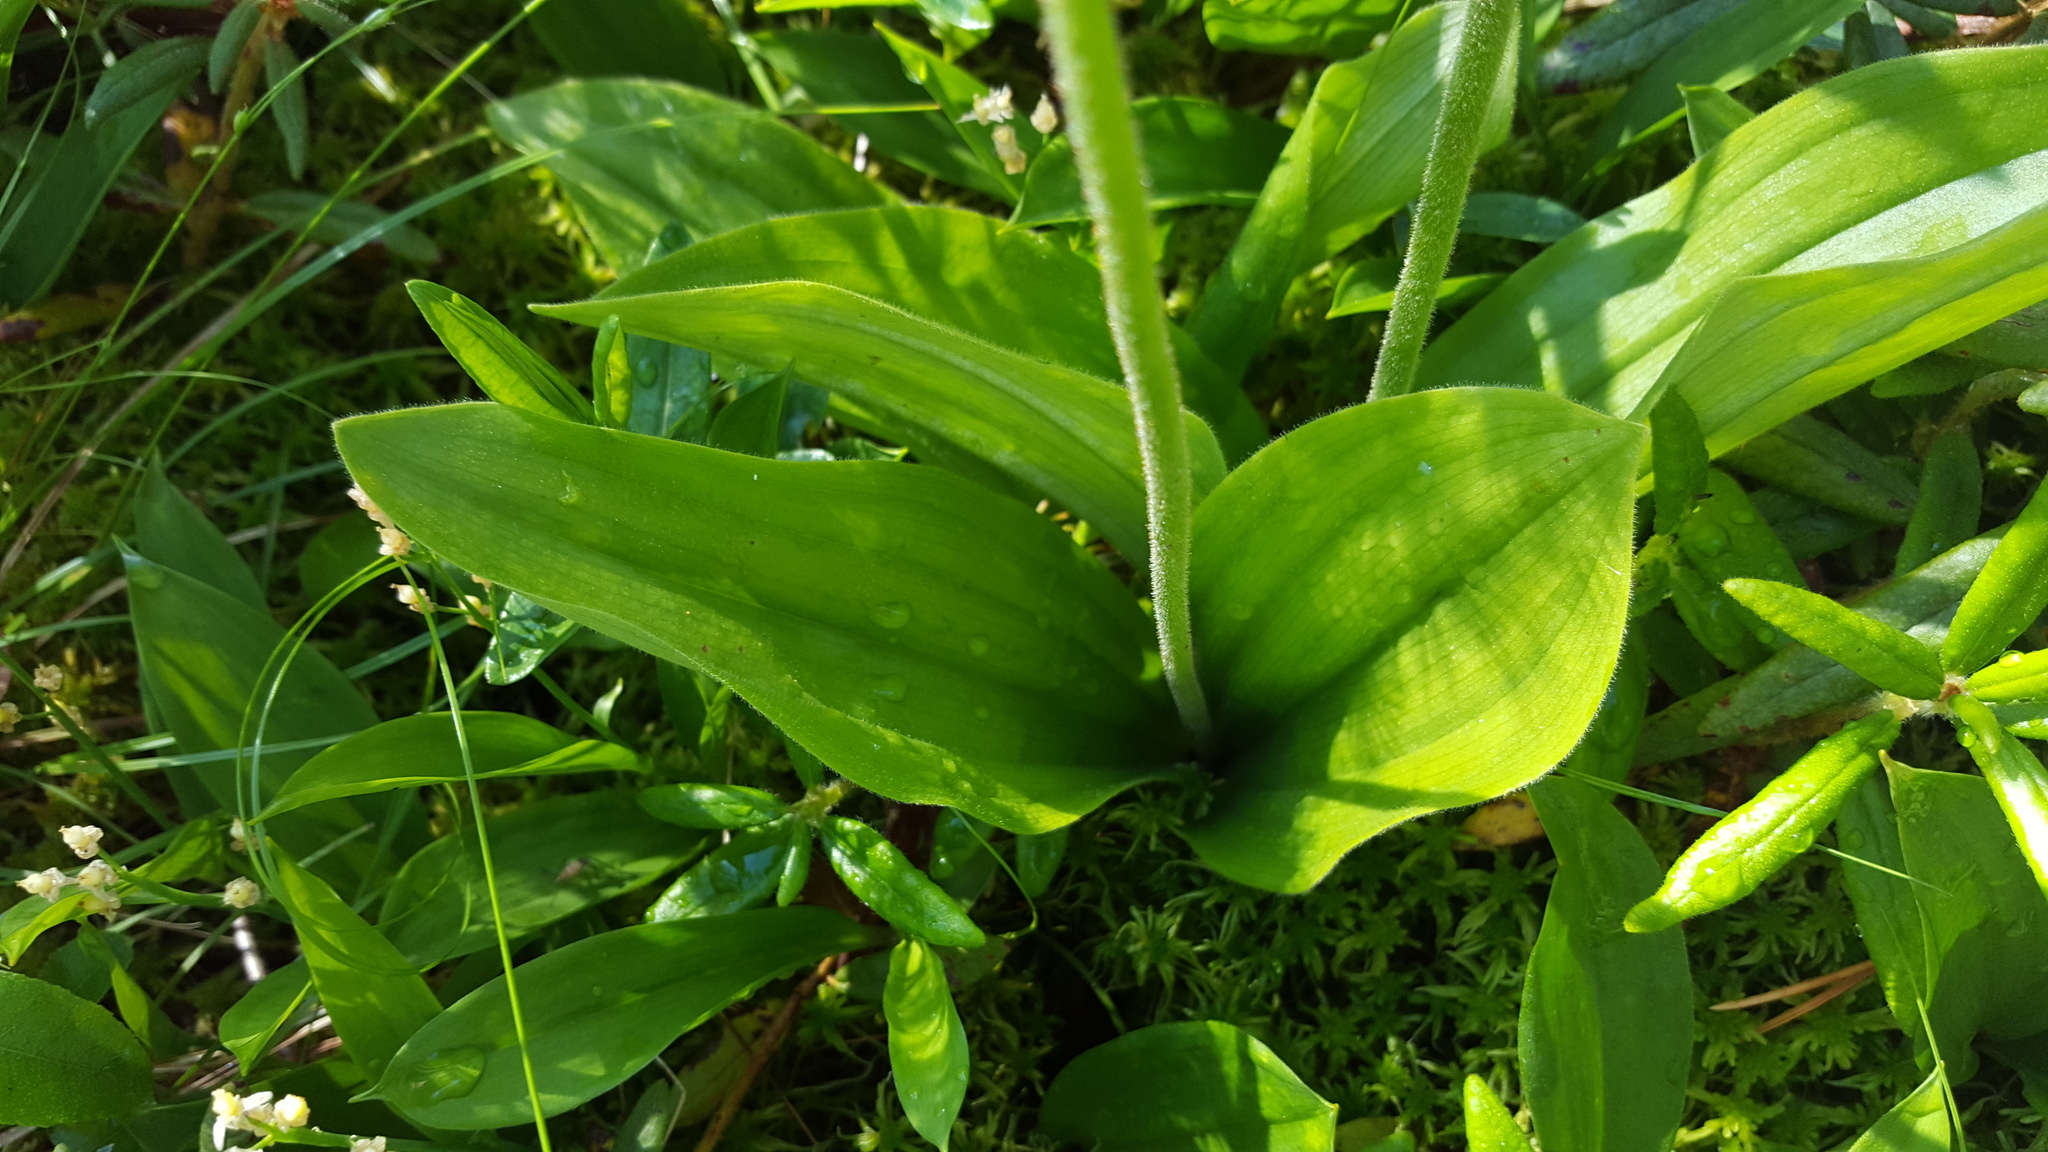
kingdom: Plantae
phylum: Tracheophyta
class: Liliopsida
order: Asparagales
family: Orchidaceae
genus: Cypripedium
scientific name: Cypripedium acaule
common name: Pink lady's-slipper
